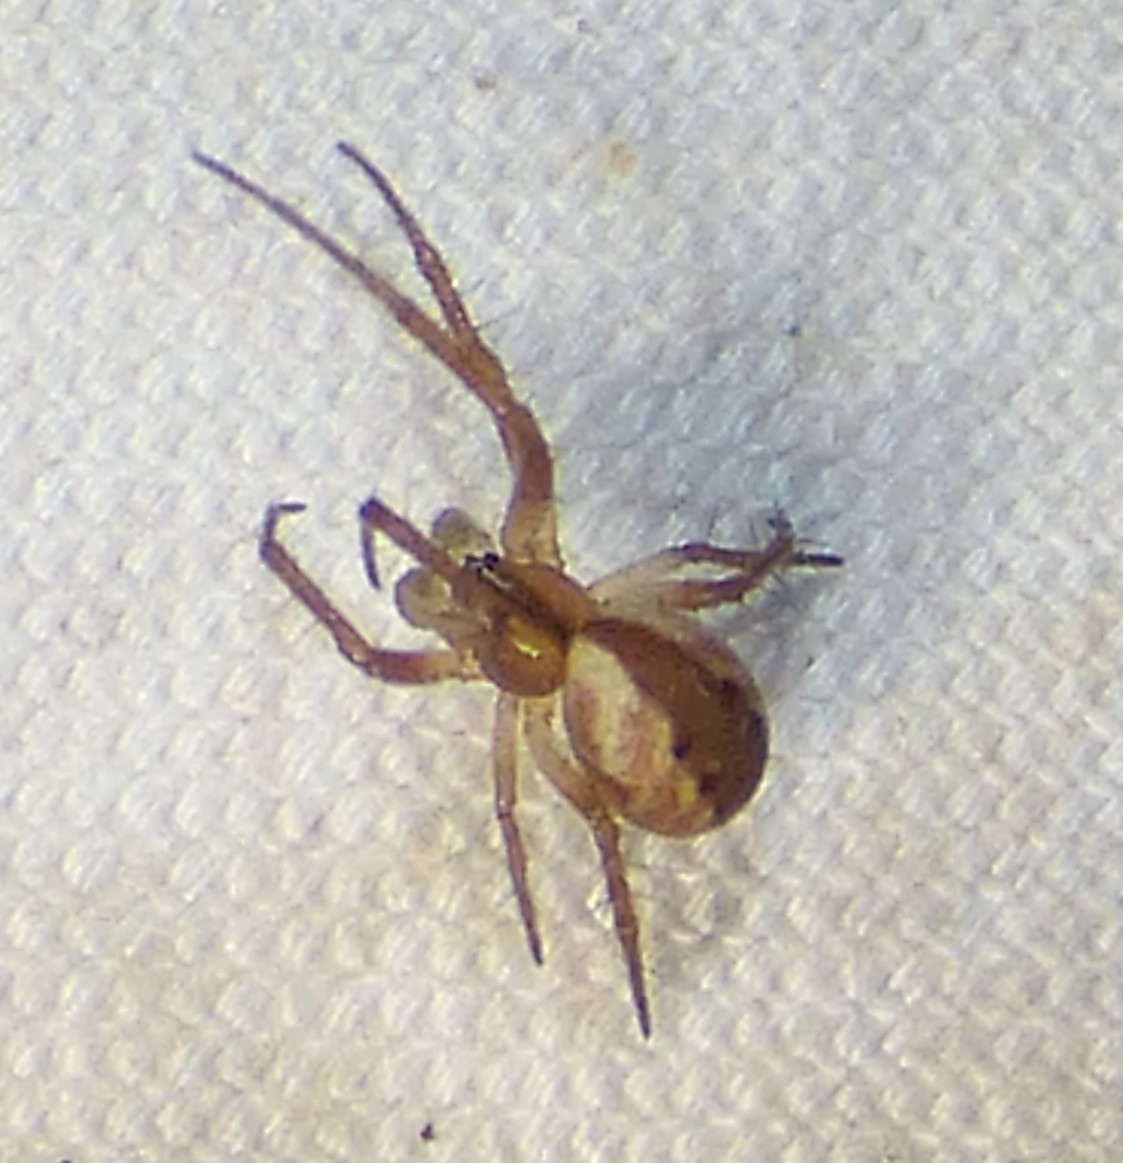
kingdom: Animalia
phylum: Arthropoda
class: Arachnida
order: Araneae
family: Araneidae
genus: Mangora
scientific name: Mangora placida
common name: Tuft-legged orbweaver
